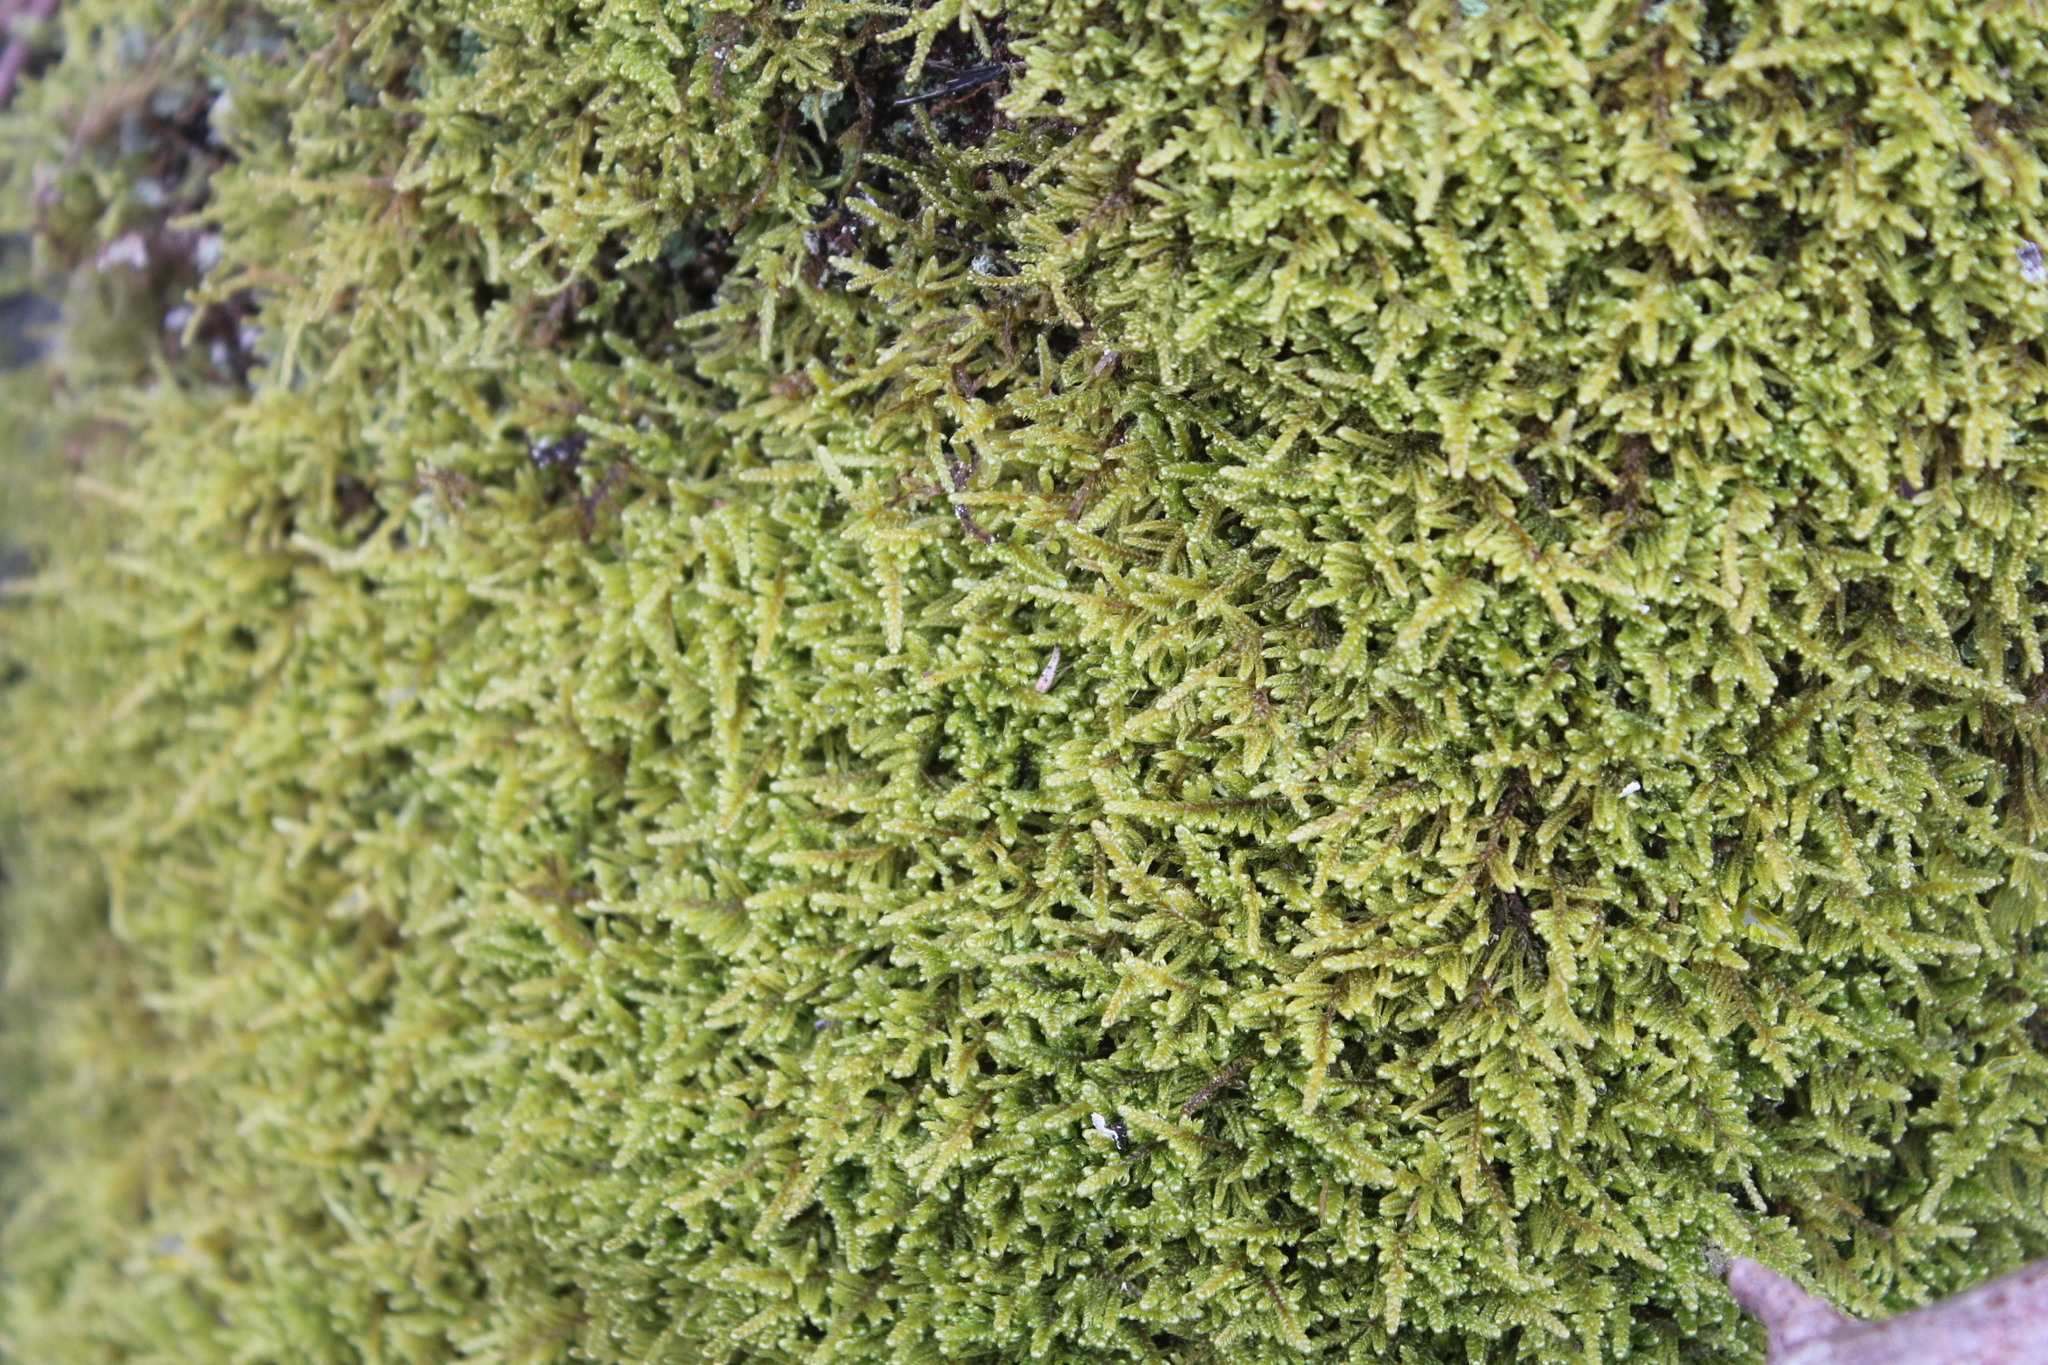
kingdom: Plantae
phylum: Bryophyta
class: Bryopsida
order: Hypnales
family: Callicladiaceae
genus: Callicladium
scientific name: Callicladium imponens
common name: Brocade moss
